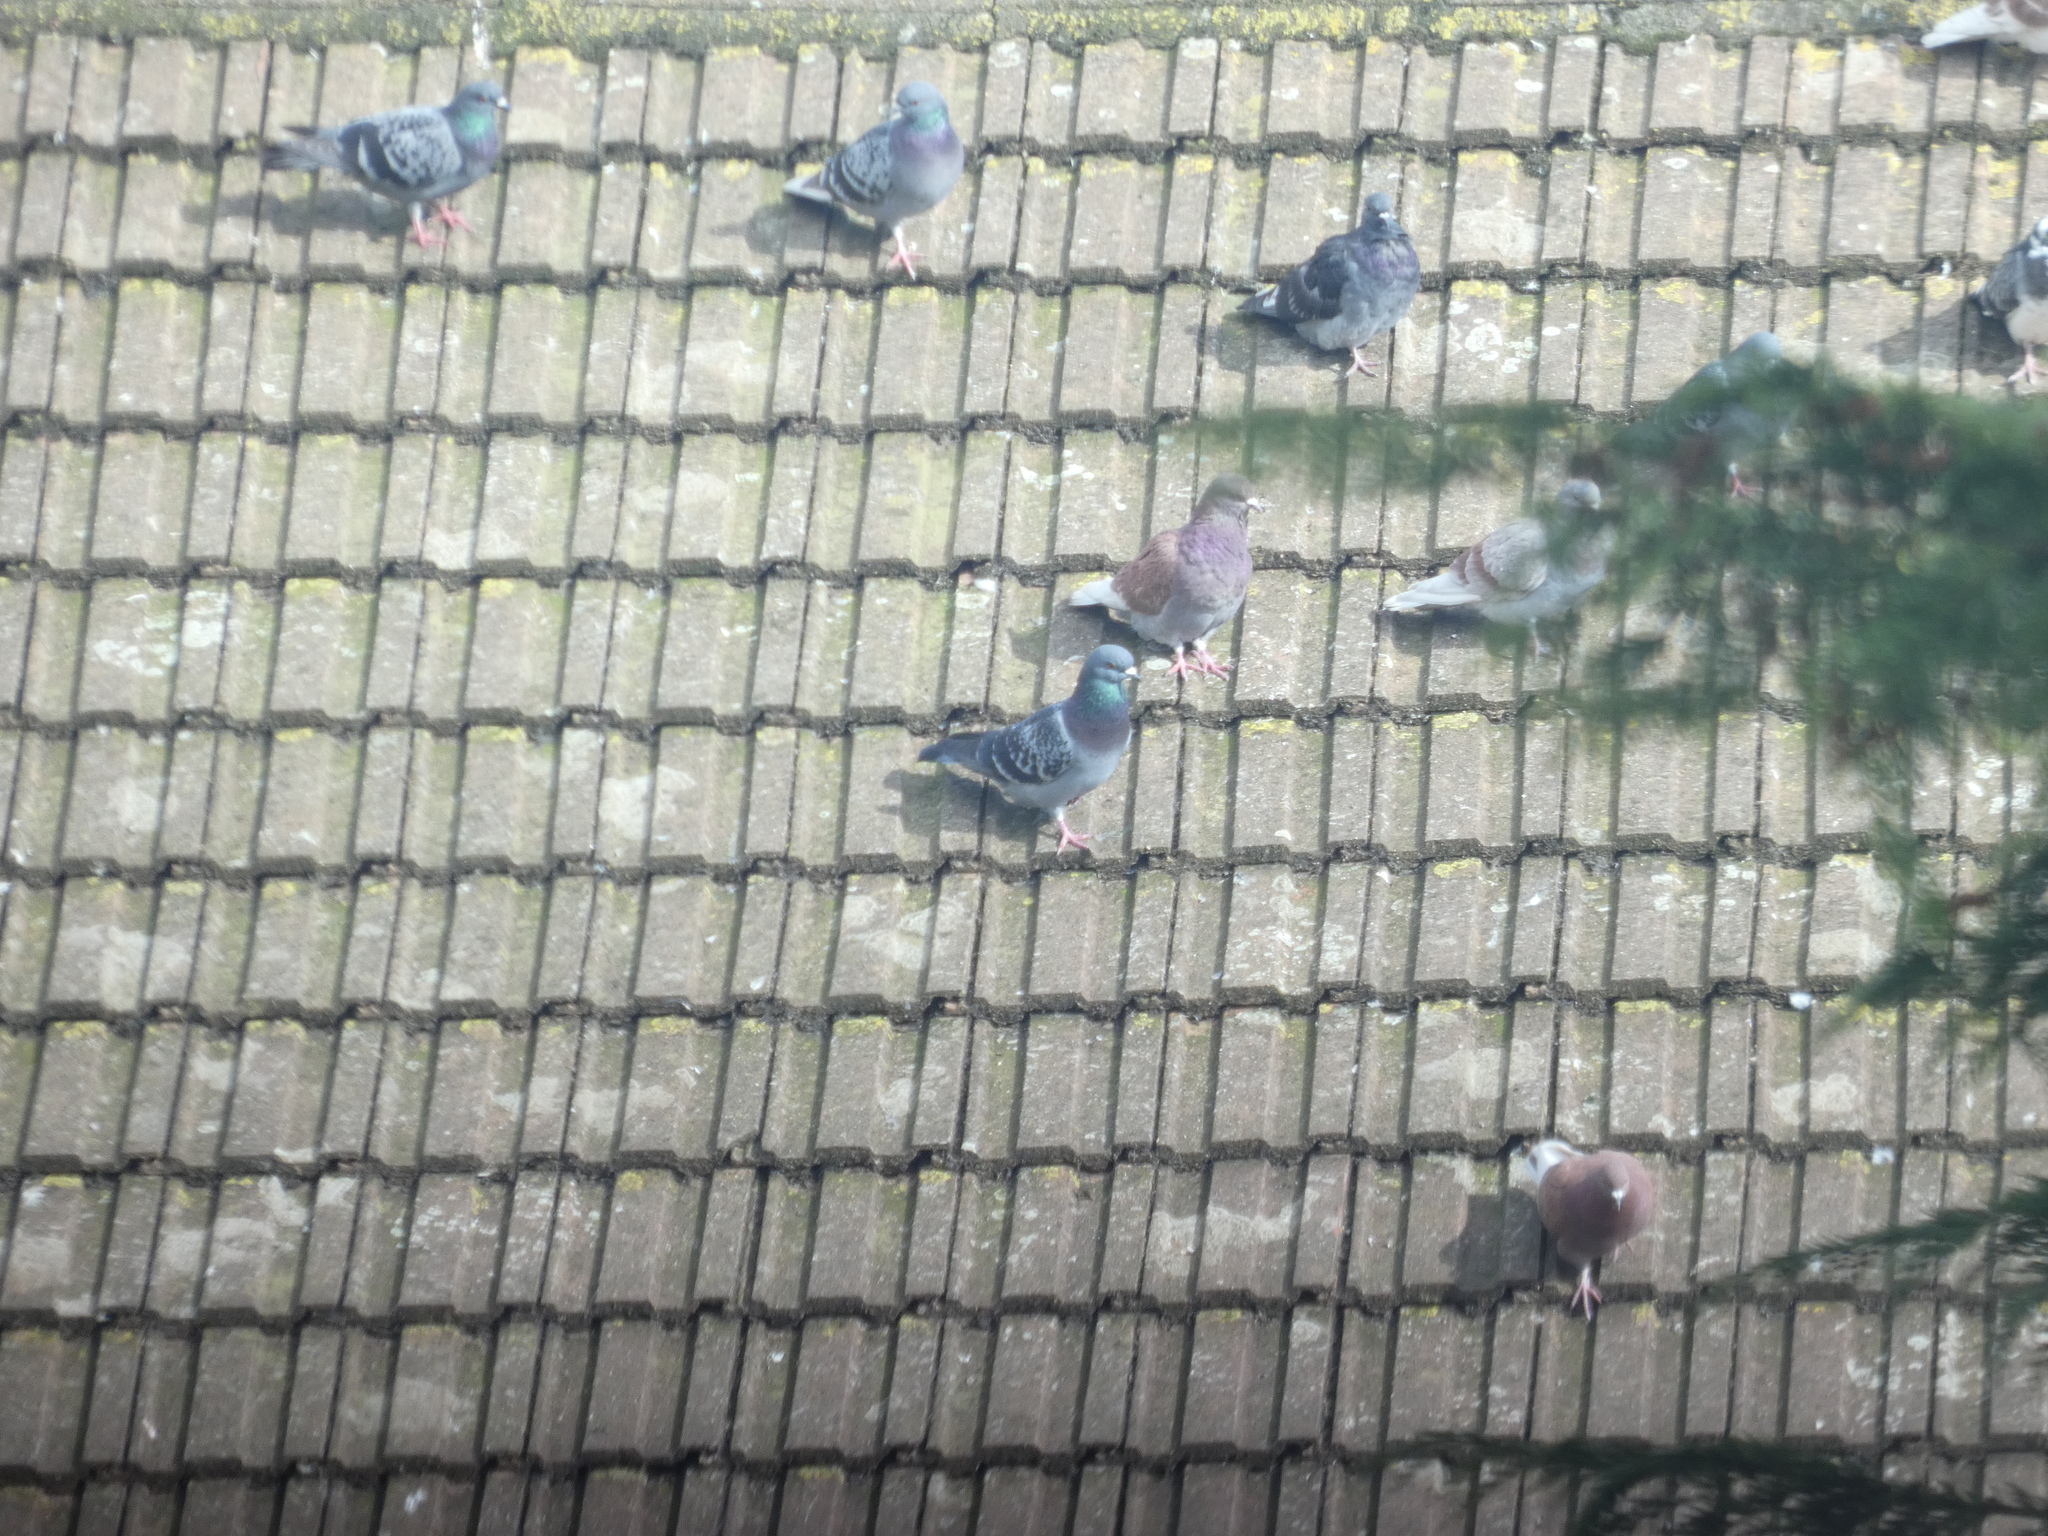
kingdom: Animalia
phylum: Chordata
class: Aves
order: Columbiformes
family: Columbidae
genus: Columba
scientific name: Columba livia
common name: Rock pigeon
